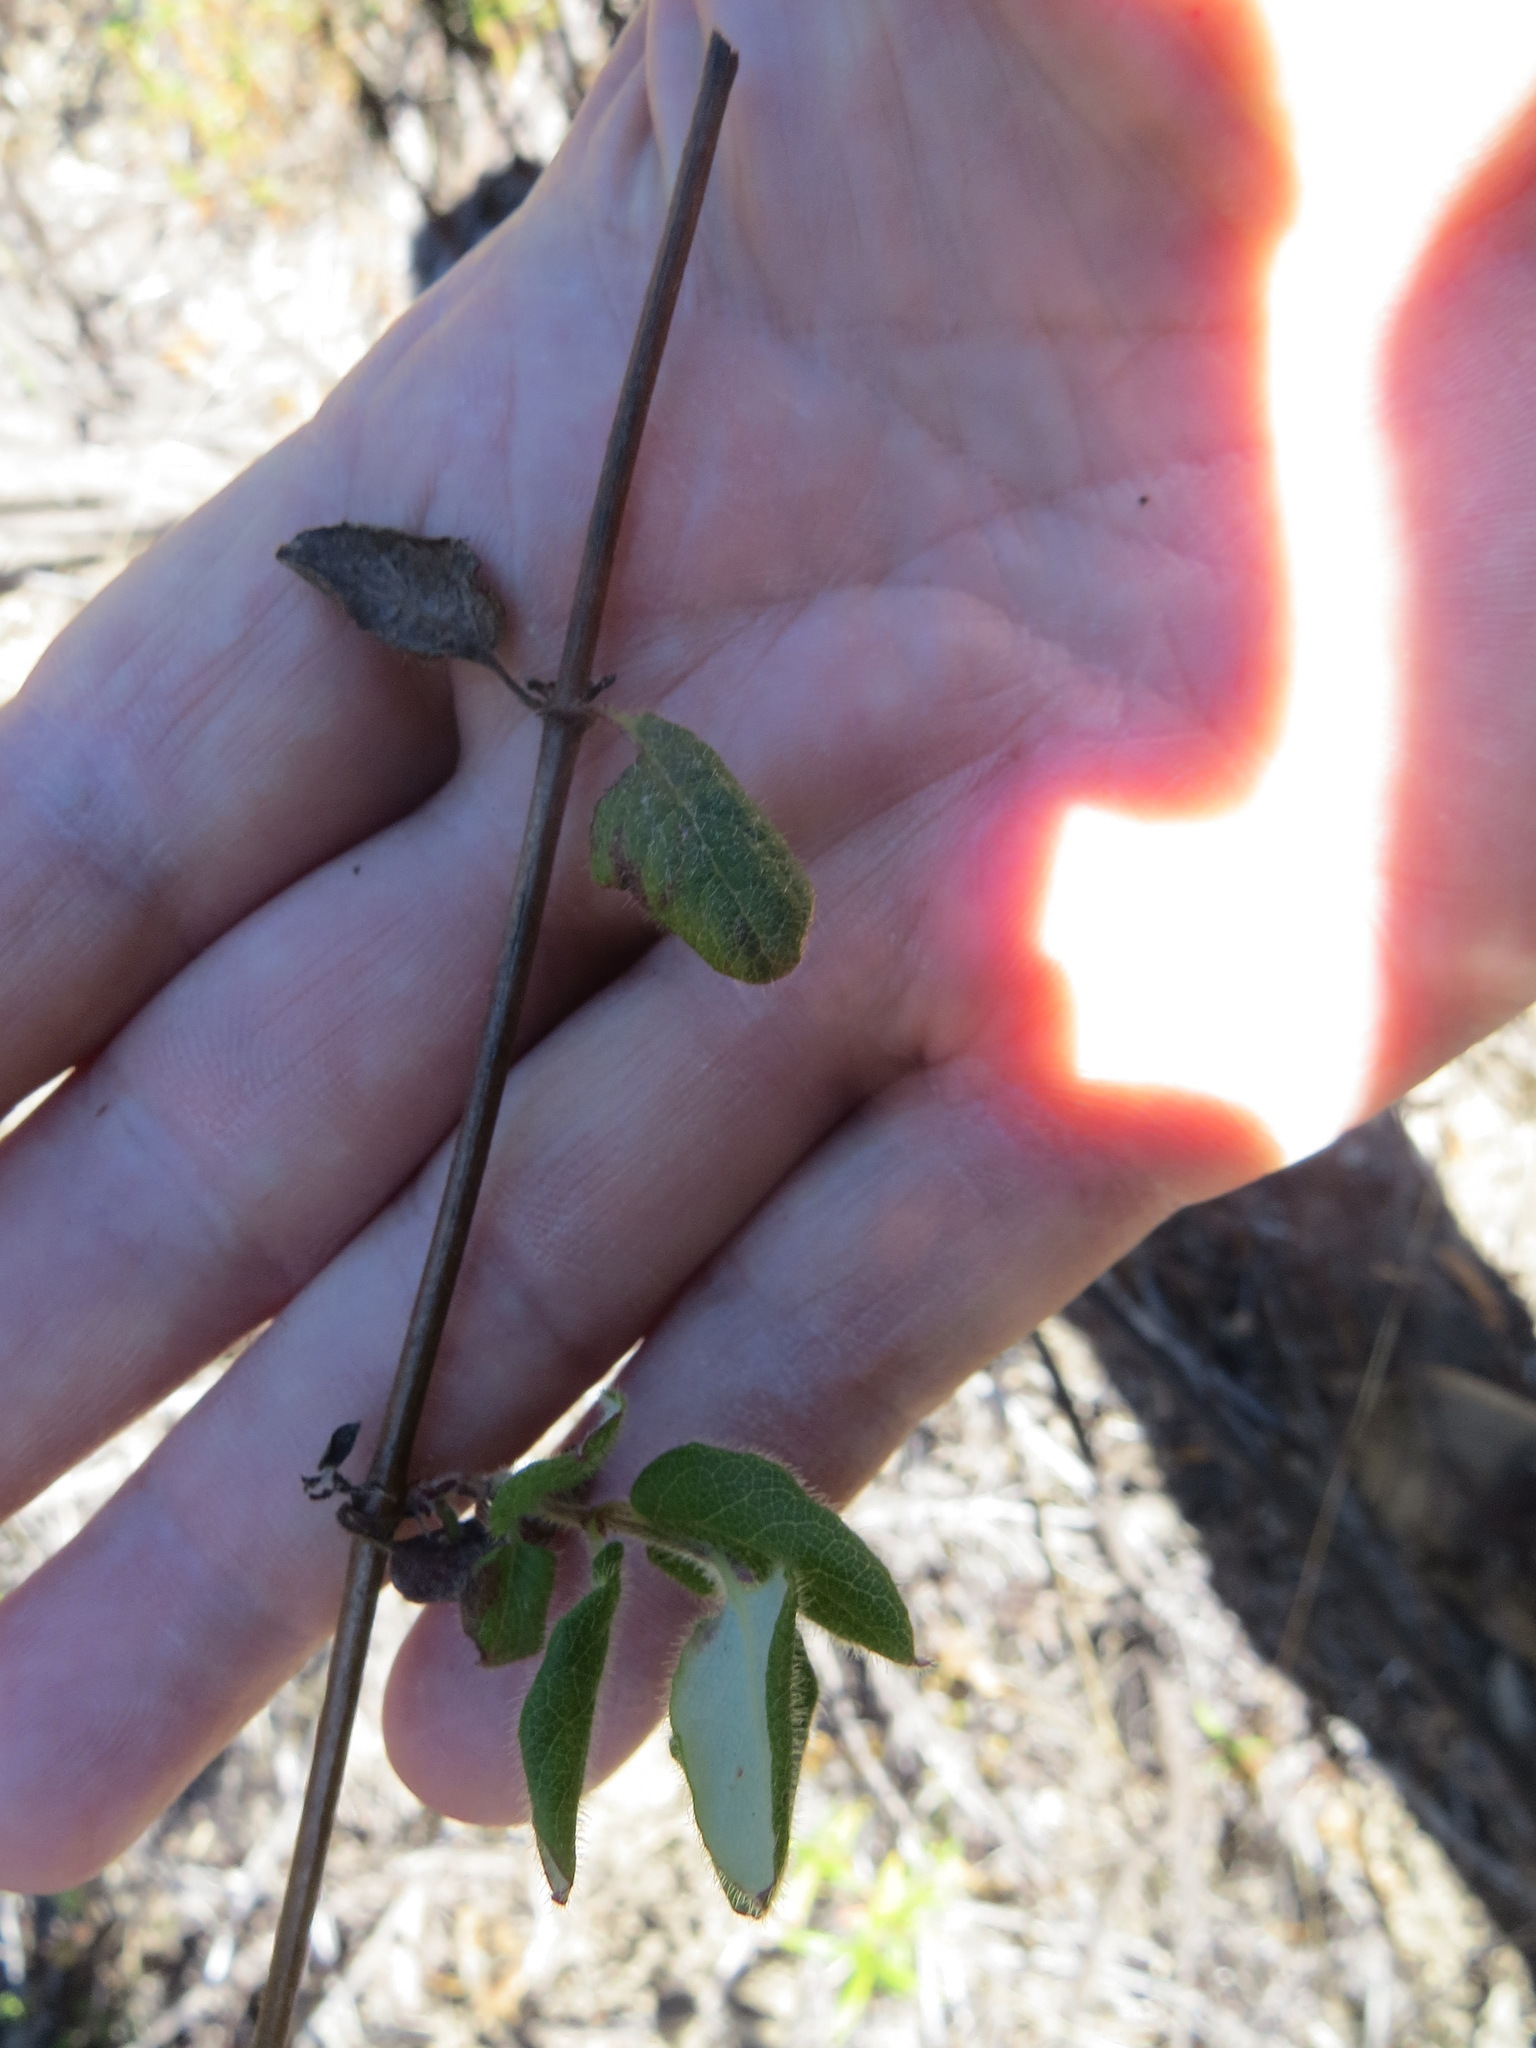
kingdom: Animalia
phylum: Chordata
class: Mammalia
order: Rodentia
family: Cricetidae
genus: Neotoma
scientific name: Neotoma fuscipes
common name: Dusky-footed woodrat
